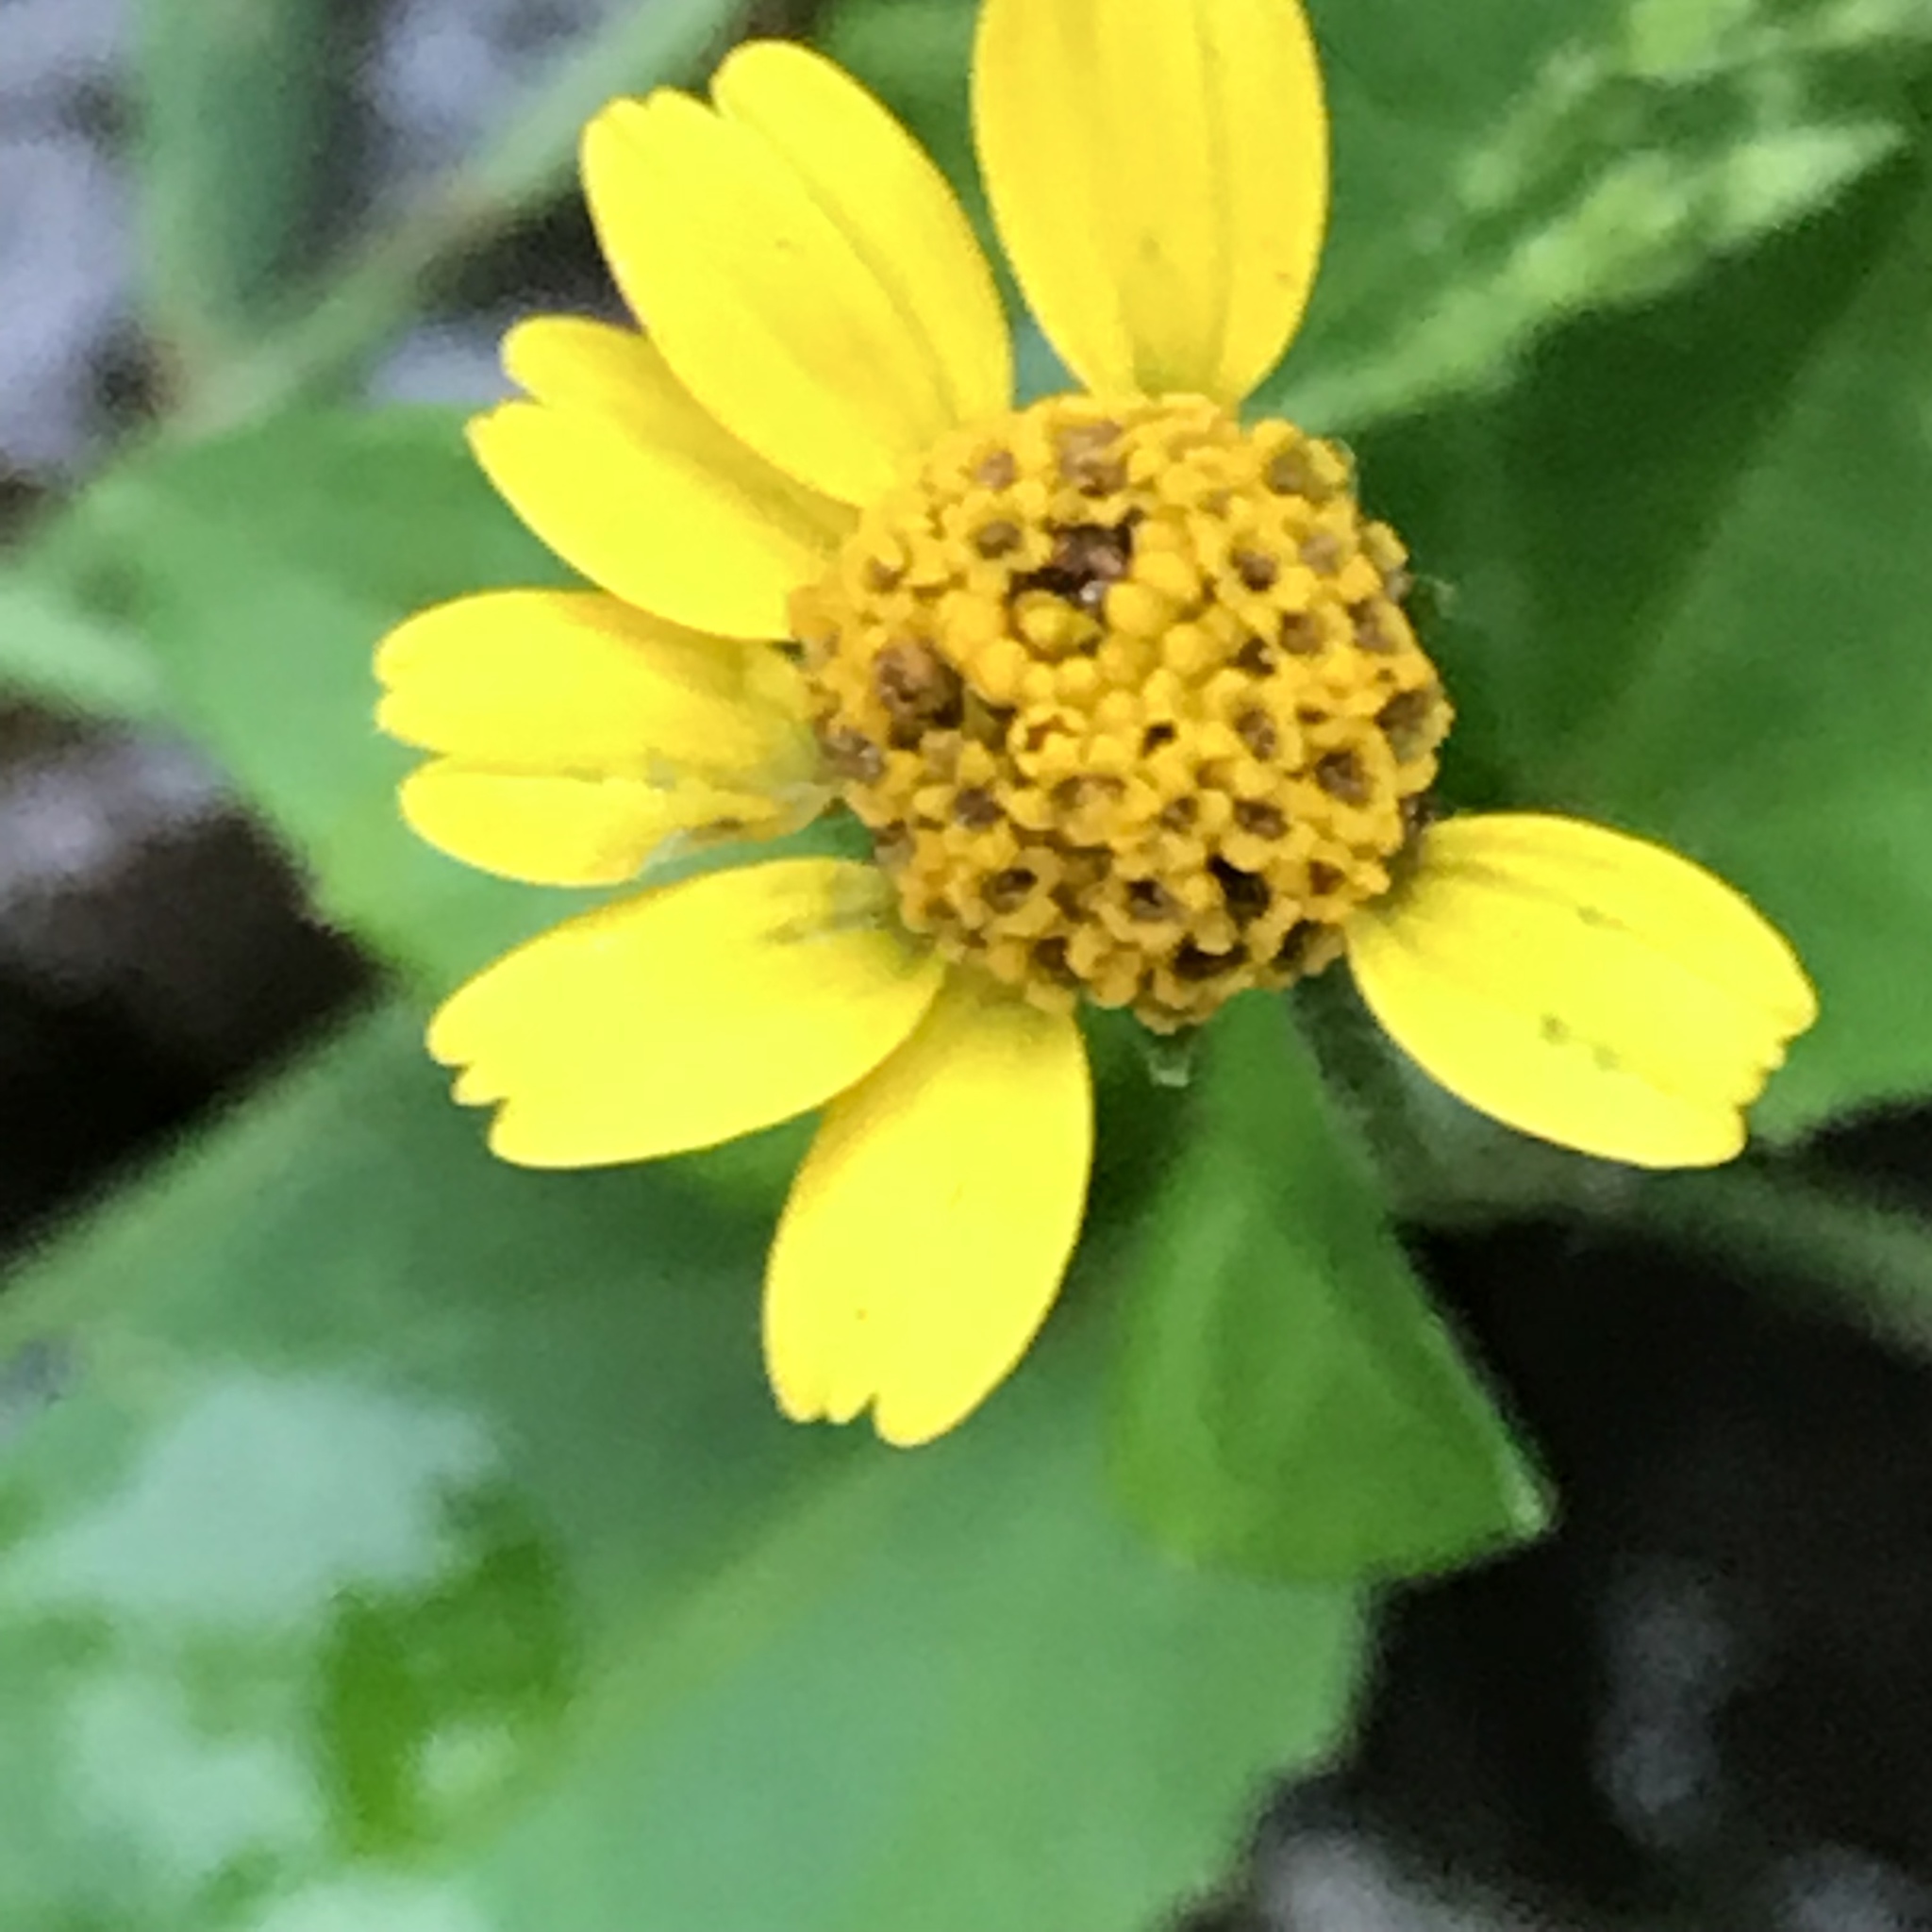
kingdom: Plantae
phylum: Tracheophyta
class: Magnoliopsida
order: Asterales
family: Asteraceae
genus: Acmella
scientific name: Acmella repens
